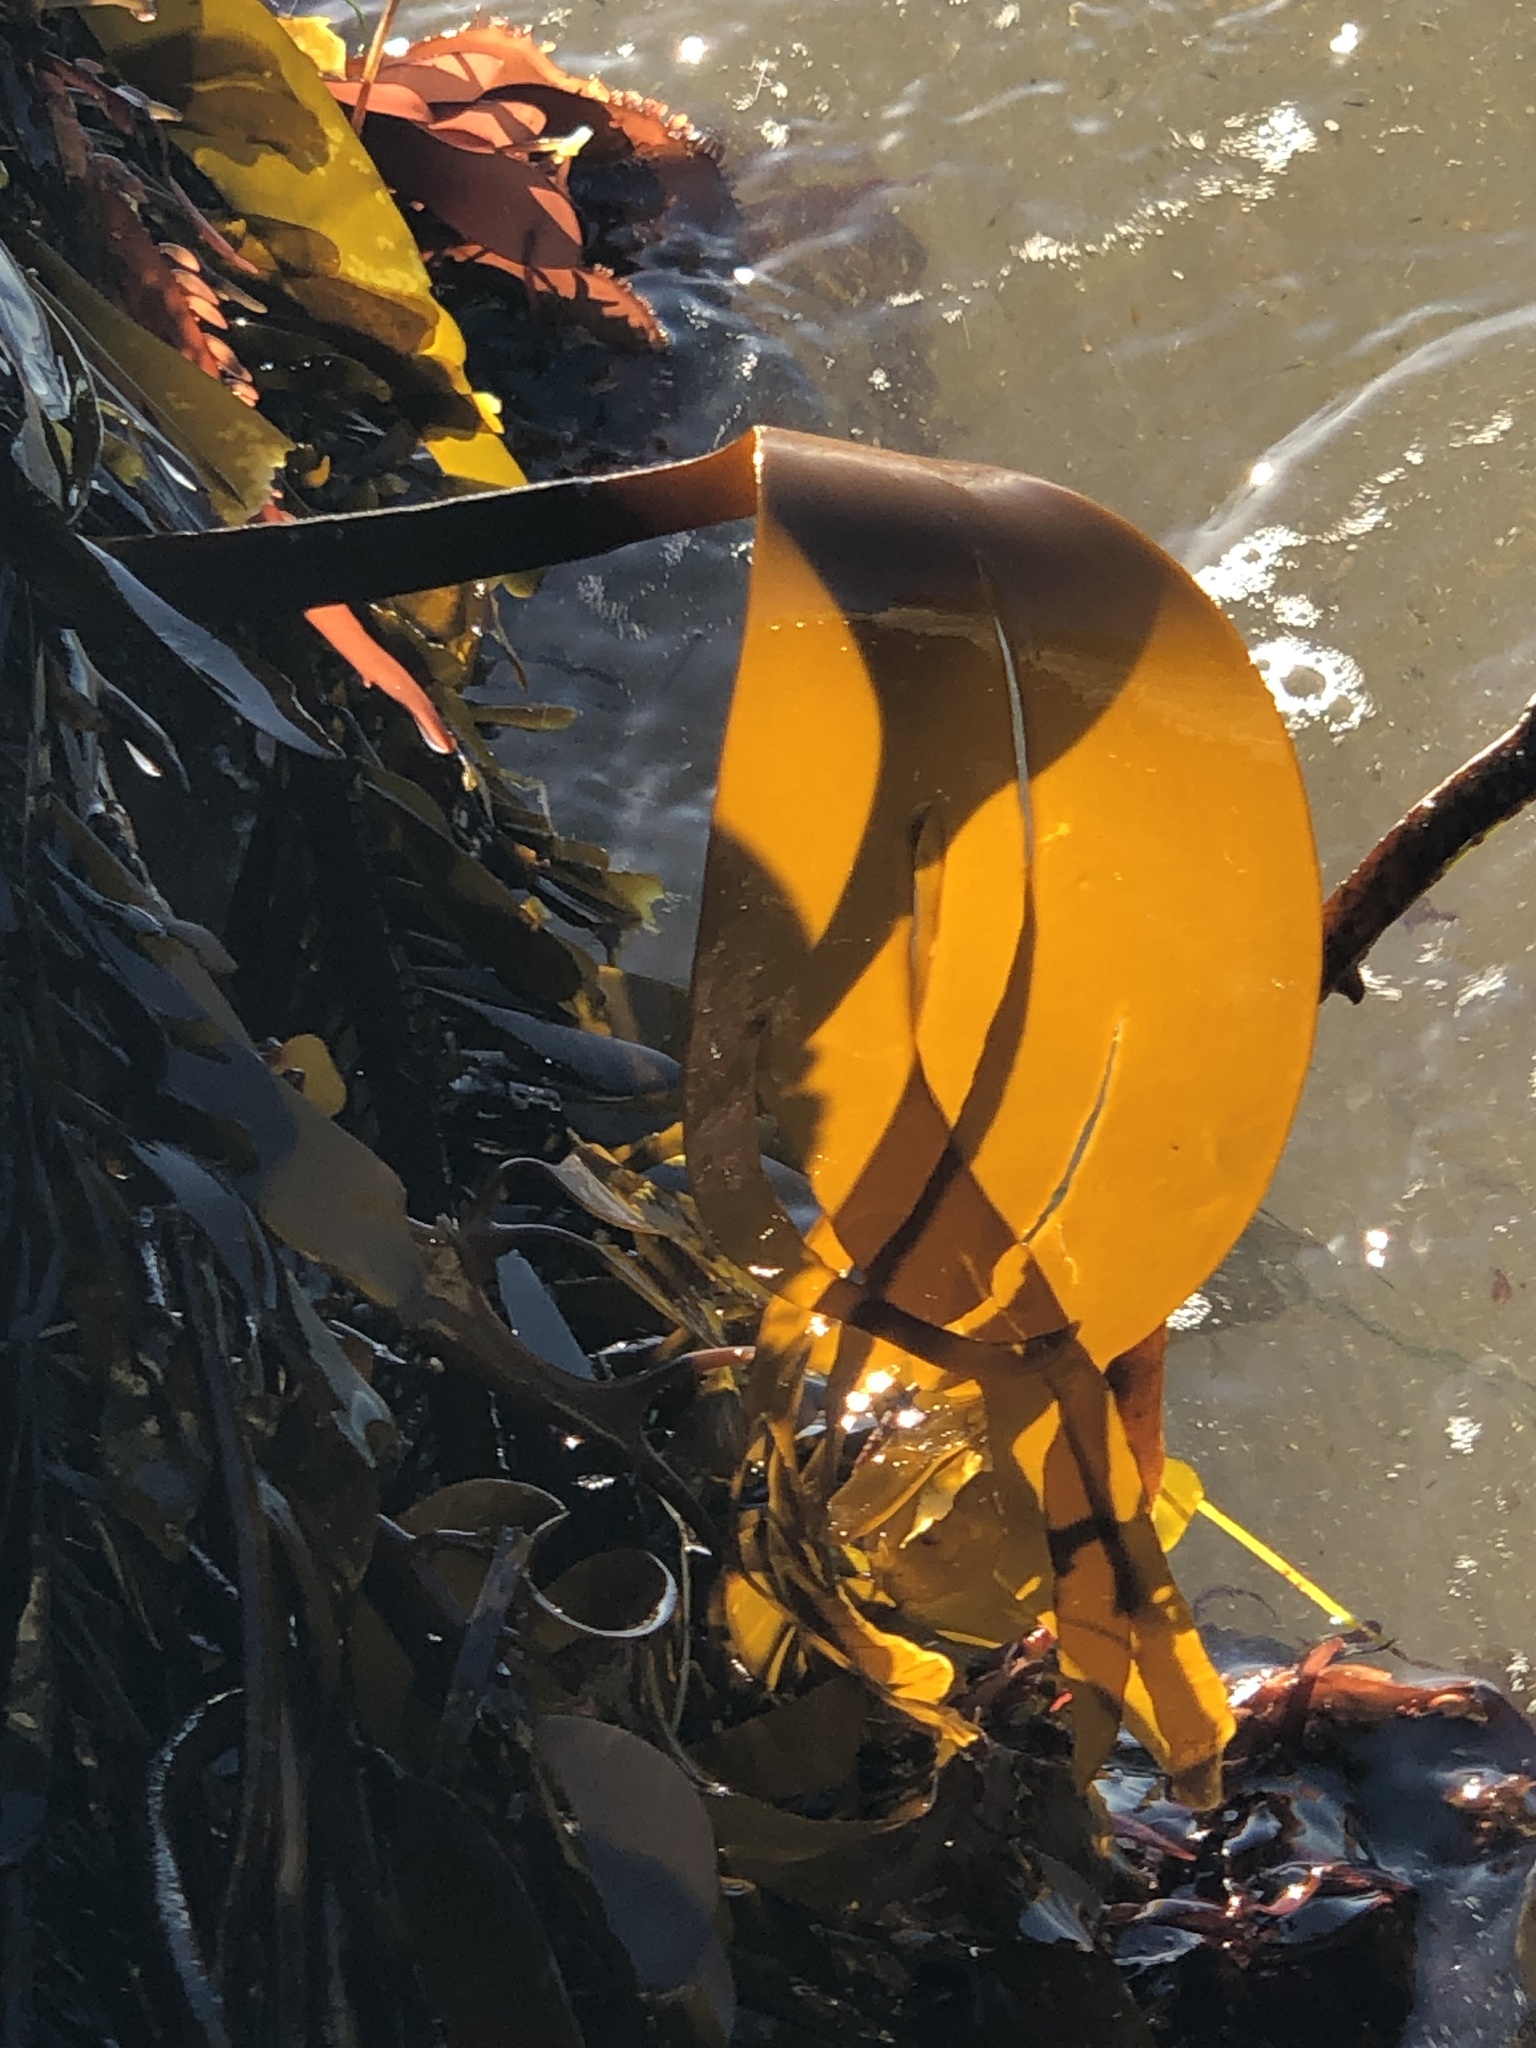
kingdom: Chromista
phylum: Ochrophyta
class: Phaeophyceae
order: Laminariales
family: Laminariaceae
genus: Laminaria
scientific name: Laminaria setchellii
